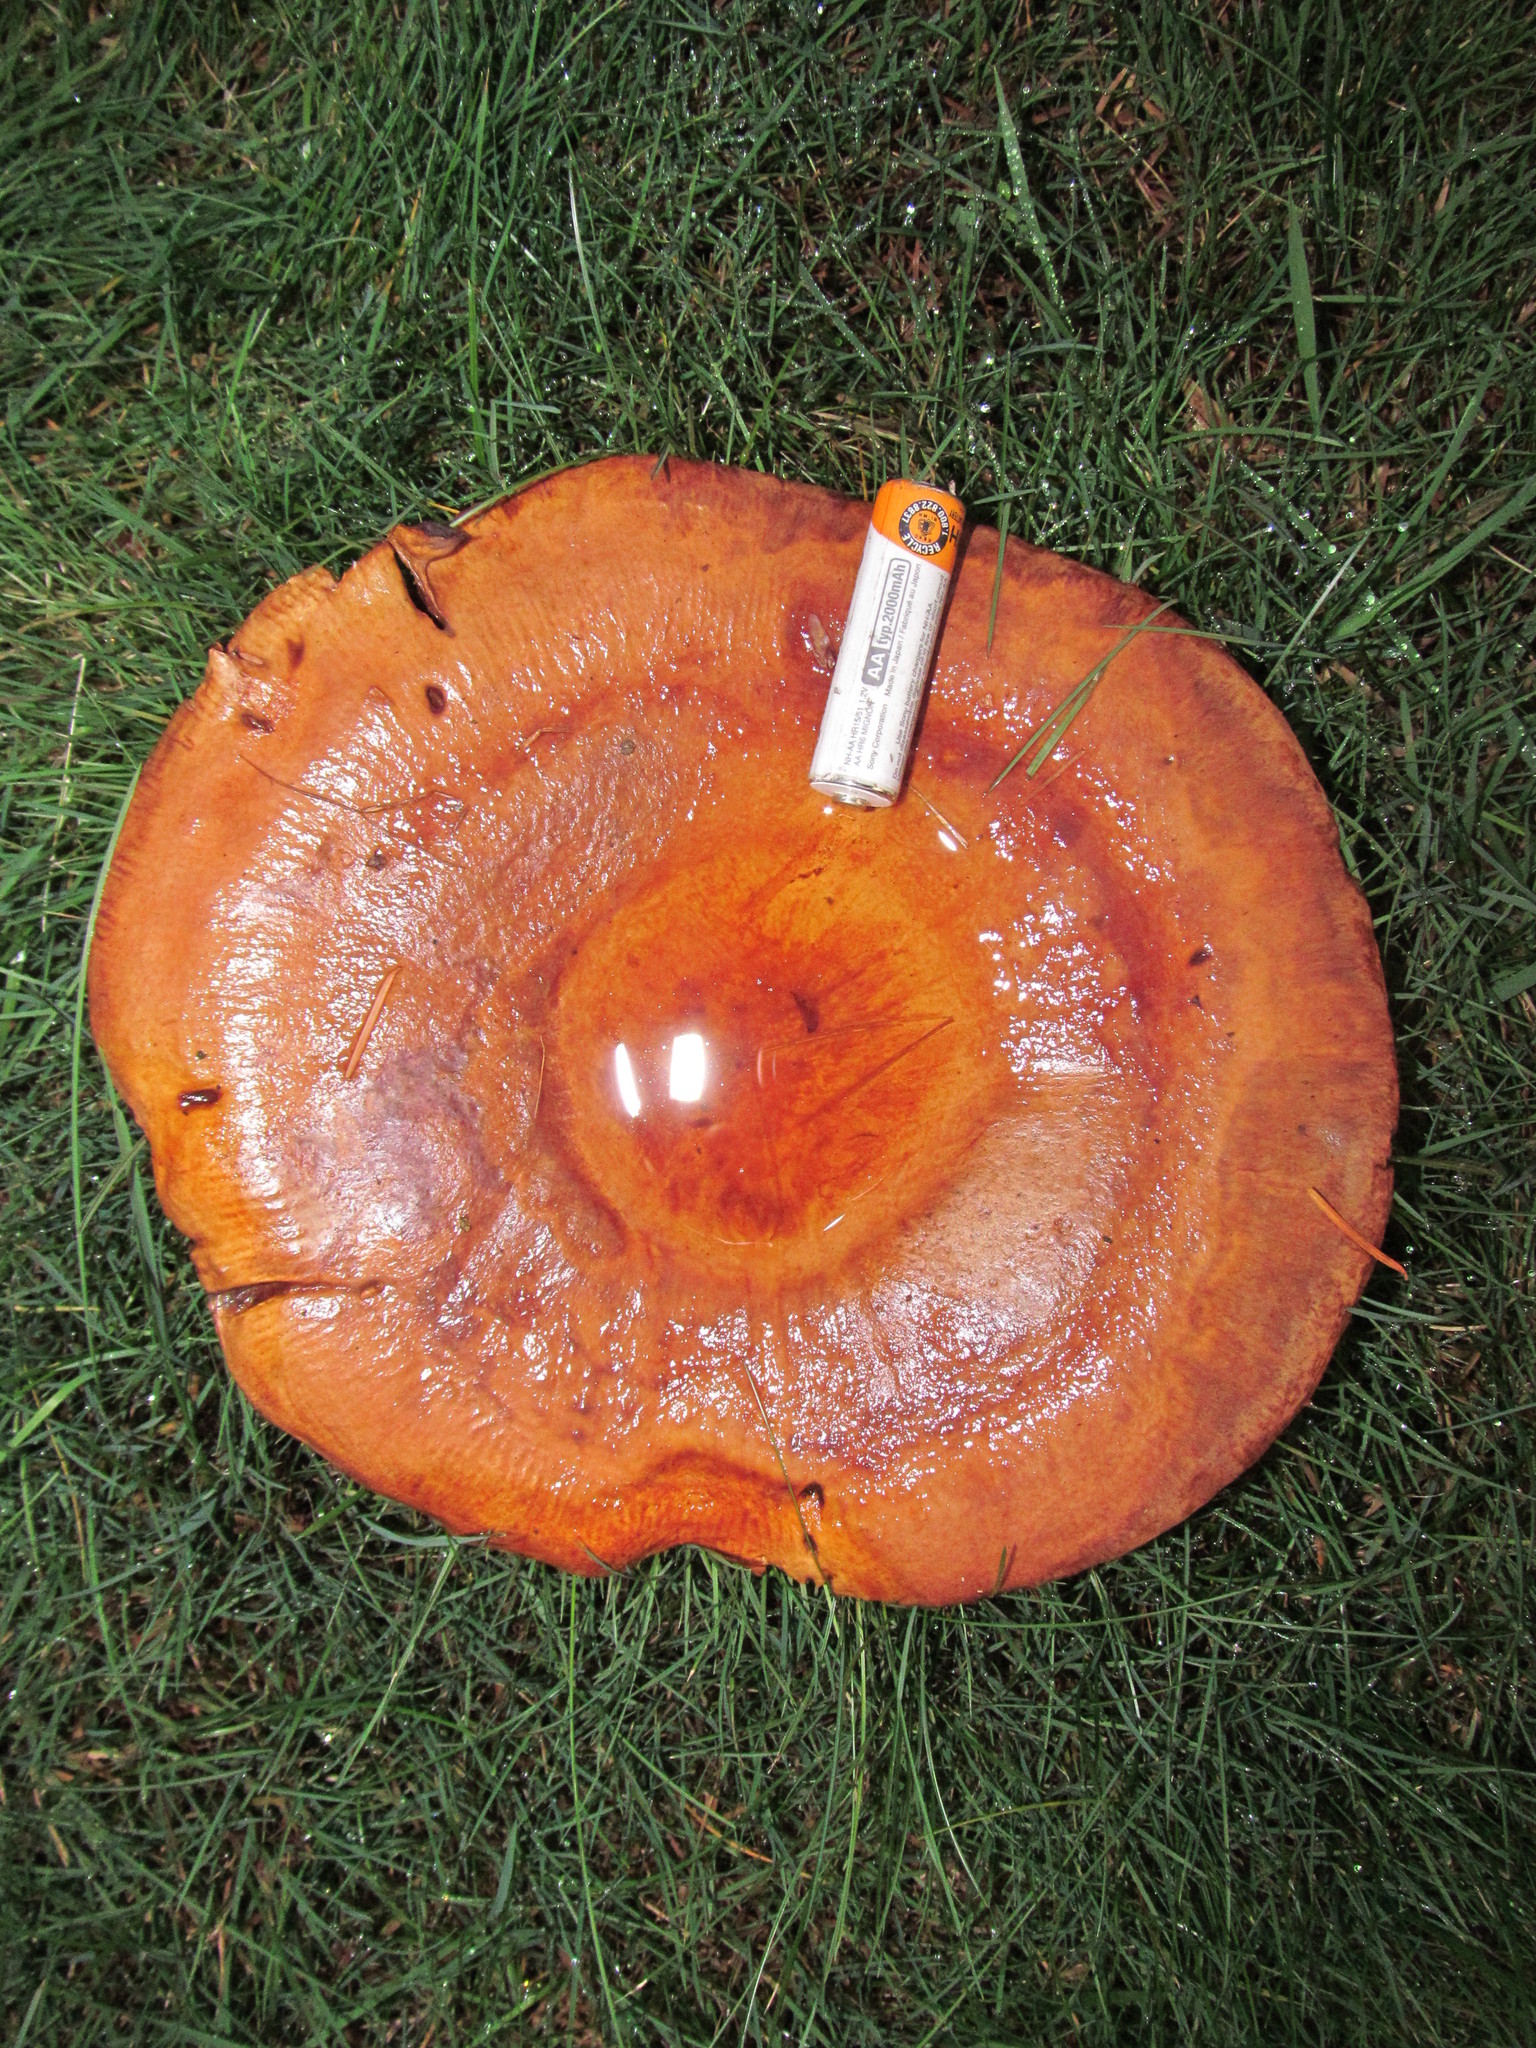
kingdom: Fungi
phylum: Basidiomycota
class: Agaricomycetes
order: Boletales
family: Paxillaceae
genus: Paxillus
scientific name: Paxillus involutus
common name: Brown roll rim
